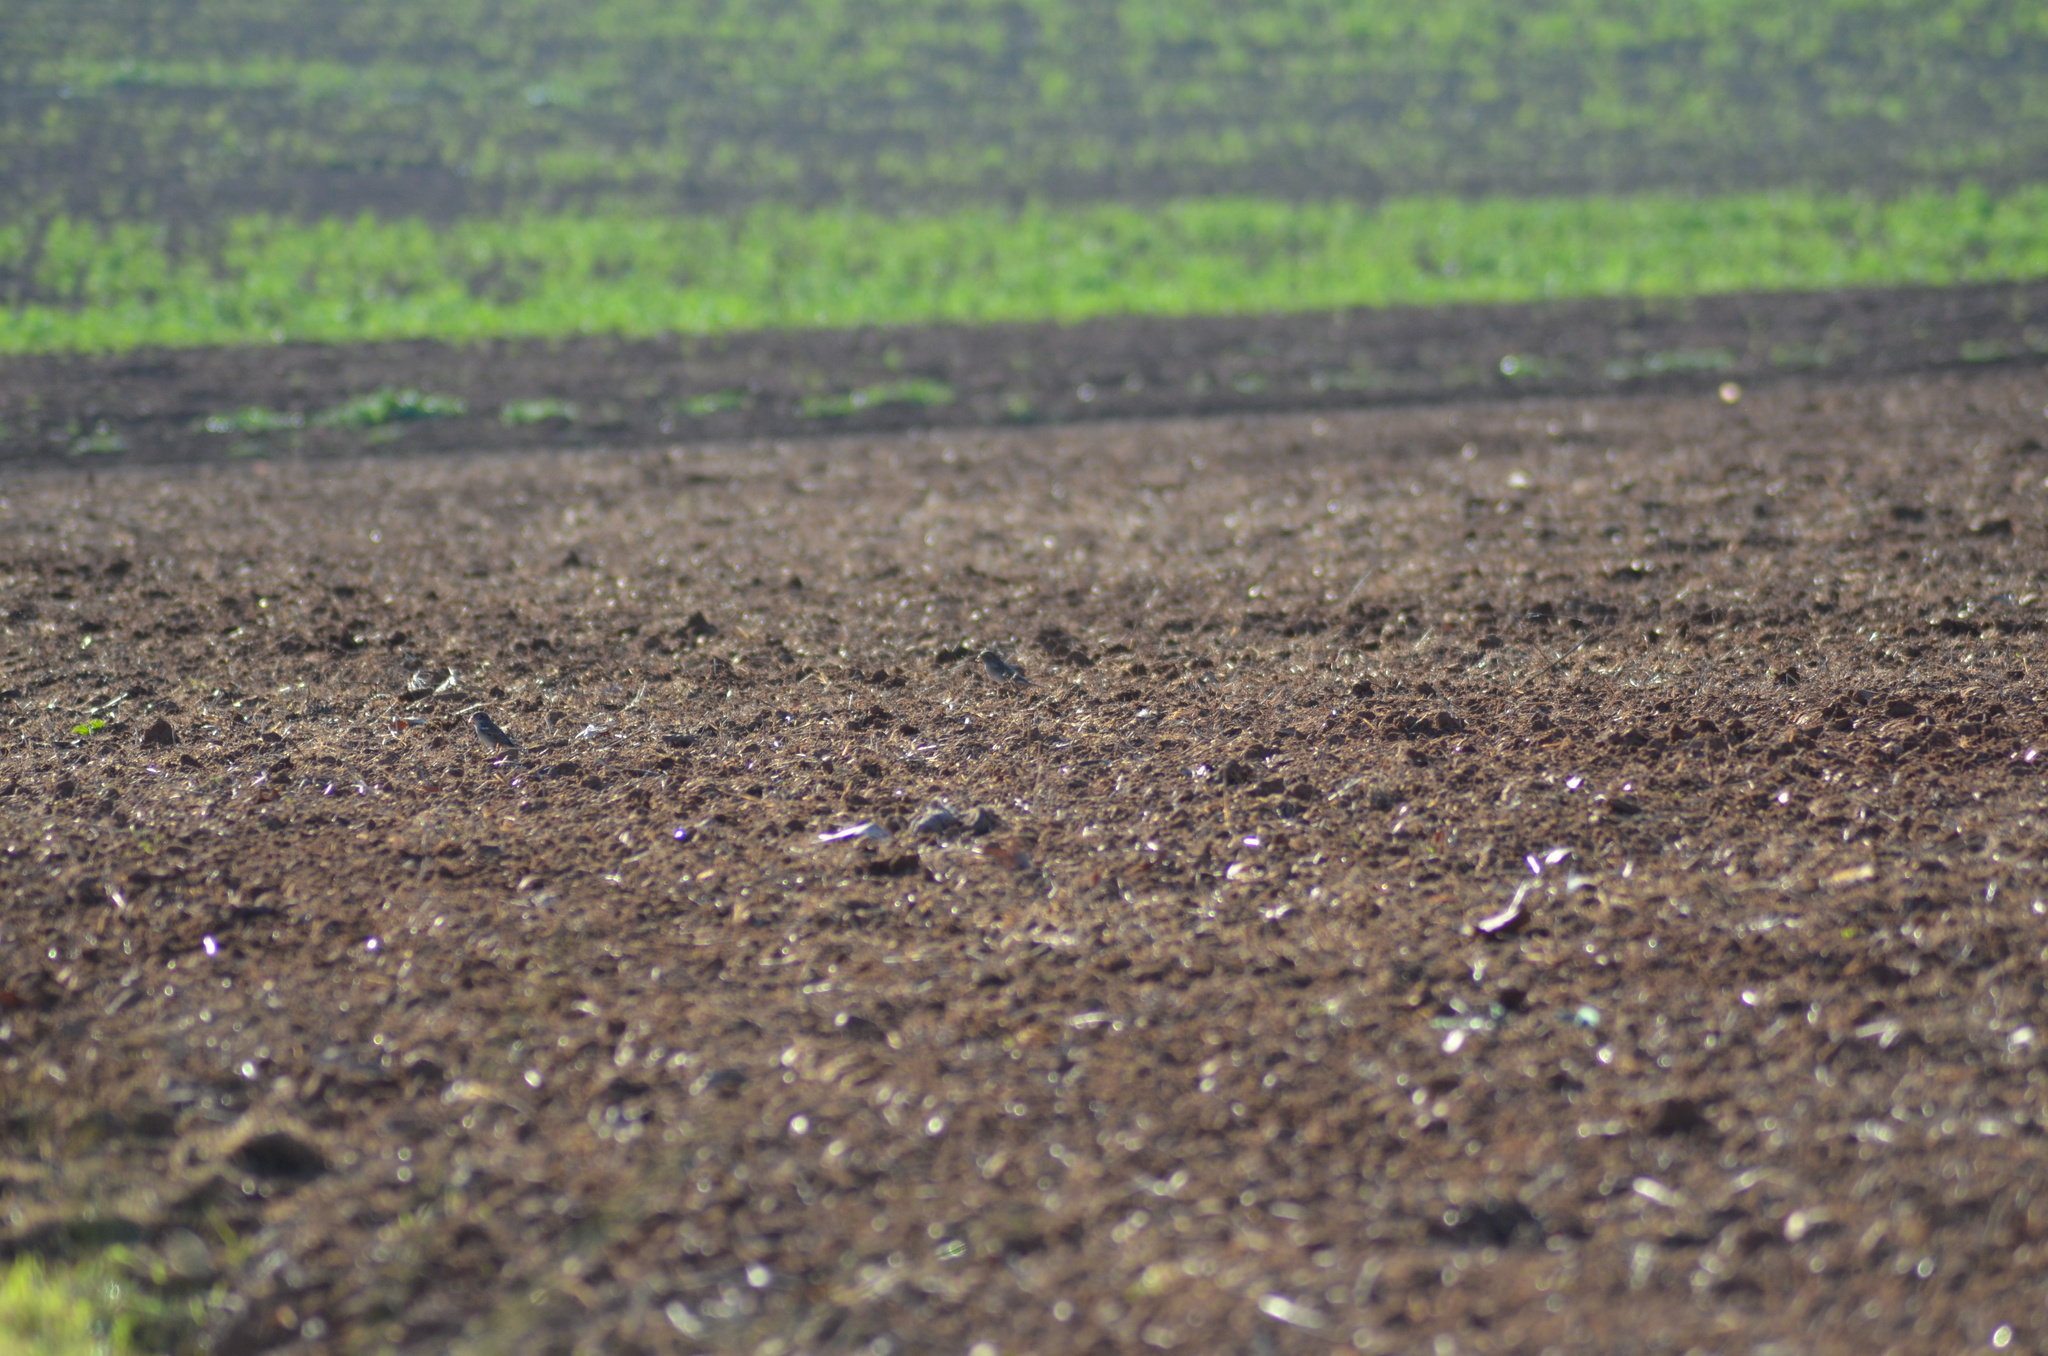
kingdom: Animalia
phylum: Chordata
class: Aves
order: Passeriformes
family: Passeridae
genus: Passer
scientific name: Passer domesticus
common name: House sparrow
